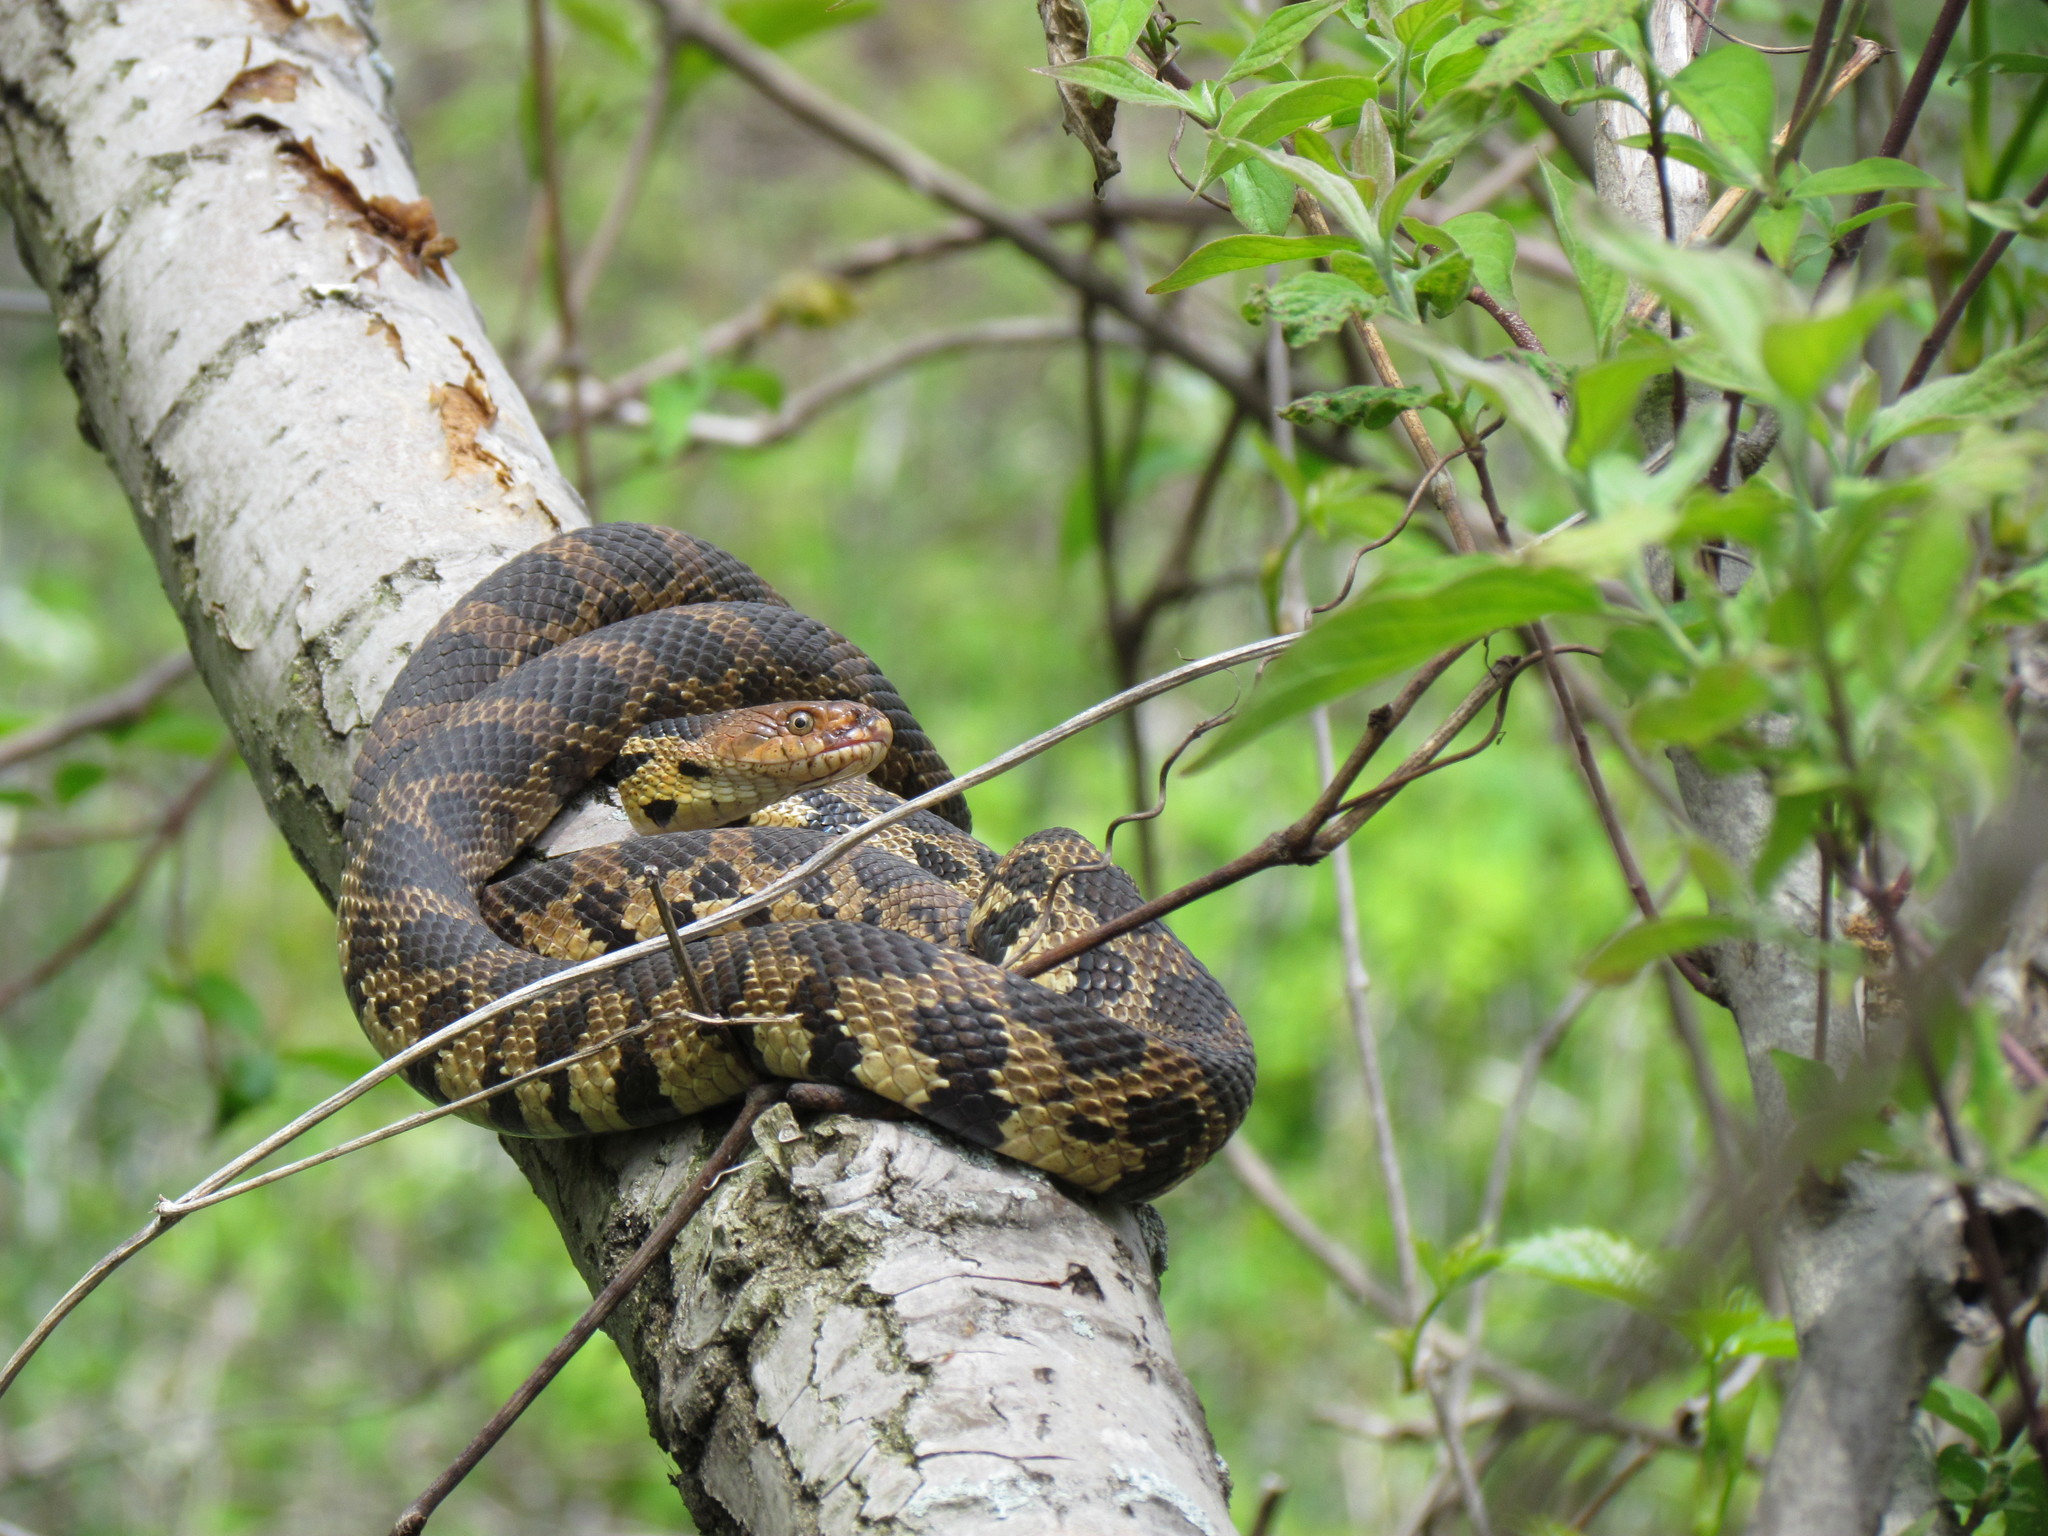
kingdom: Animalia
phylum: Chordata
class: Squamata
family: Colubridae
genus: Pantherophis
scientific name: Pantherophis vulpinus
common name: Eastern fox snake
